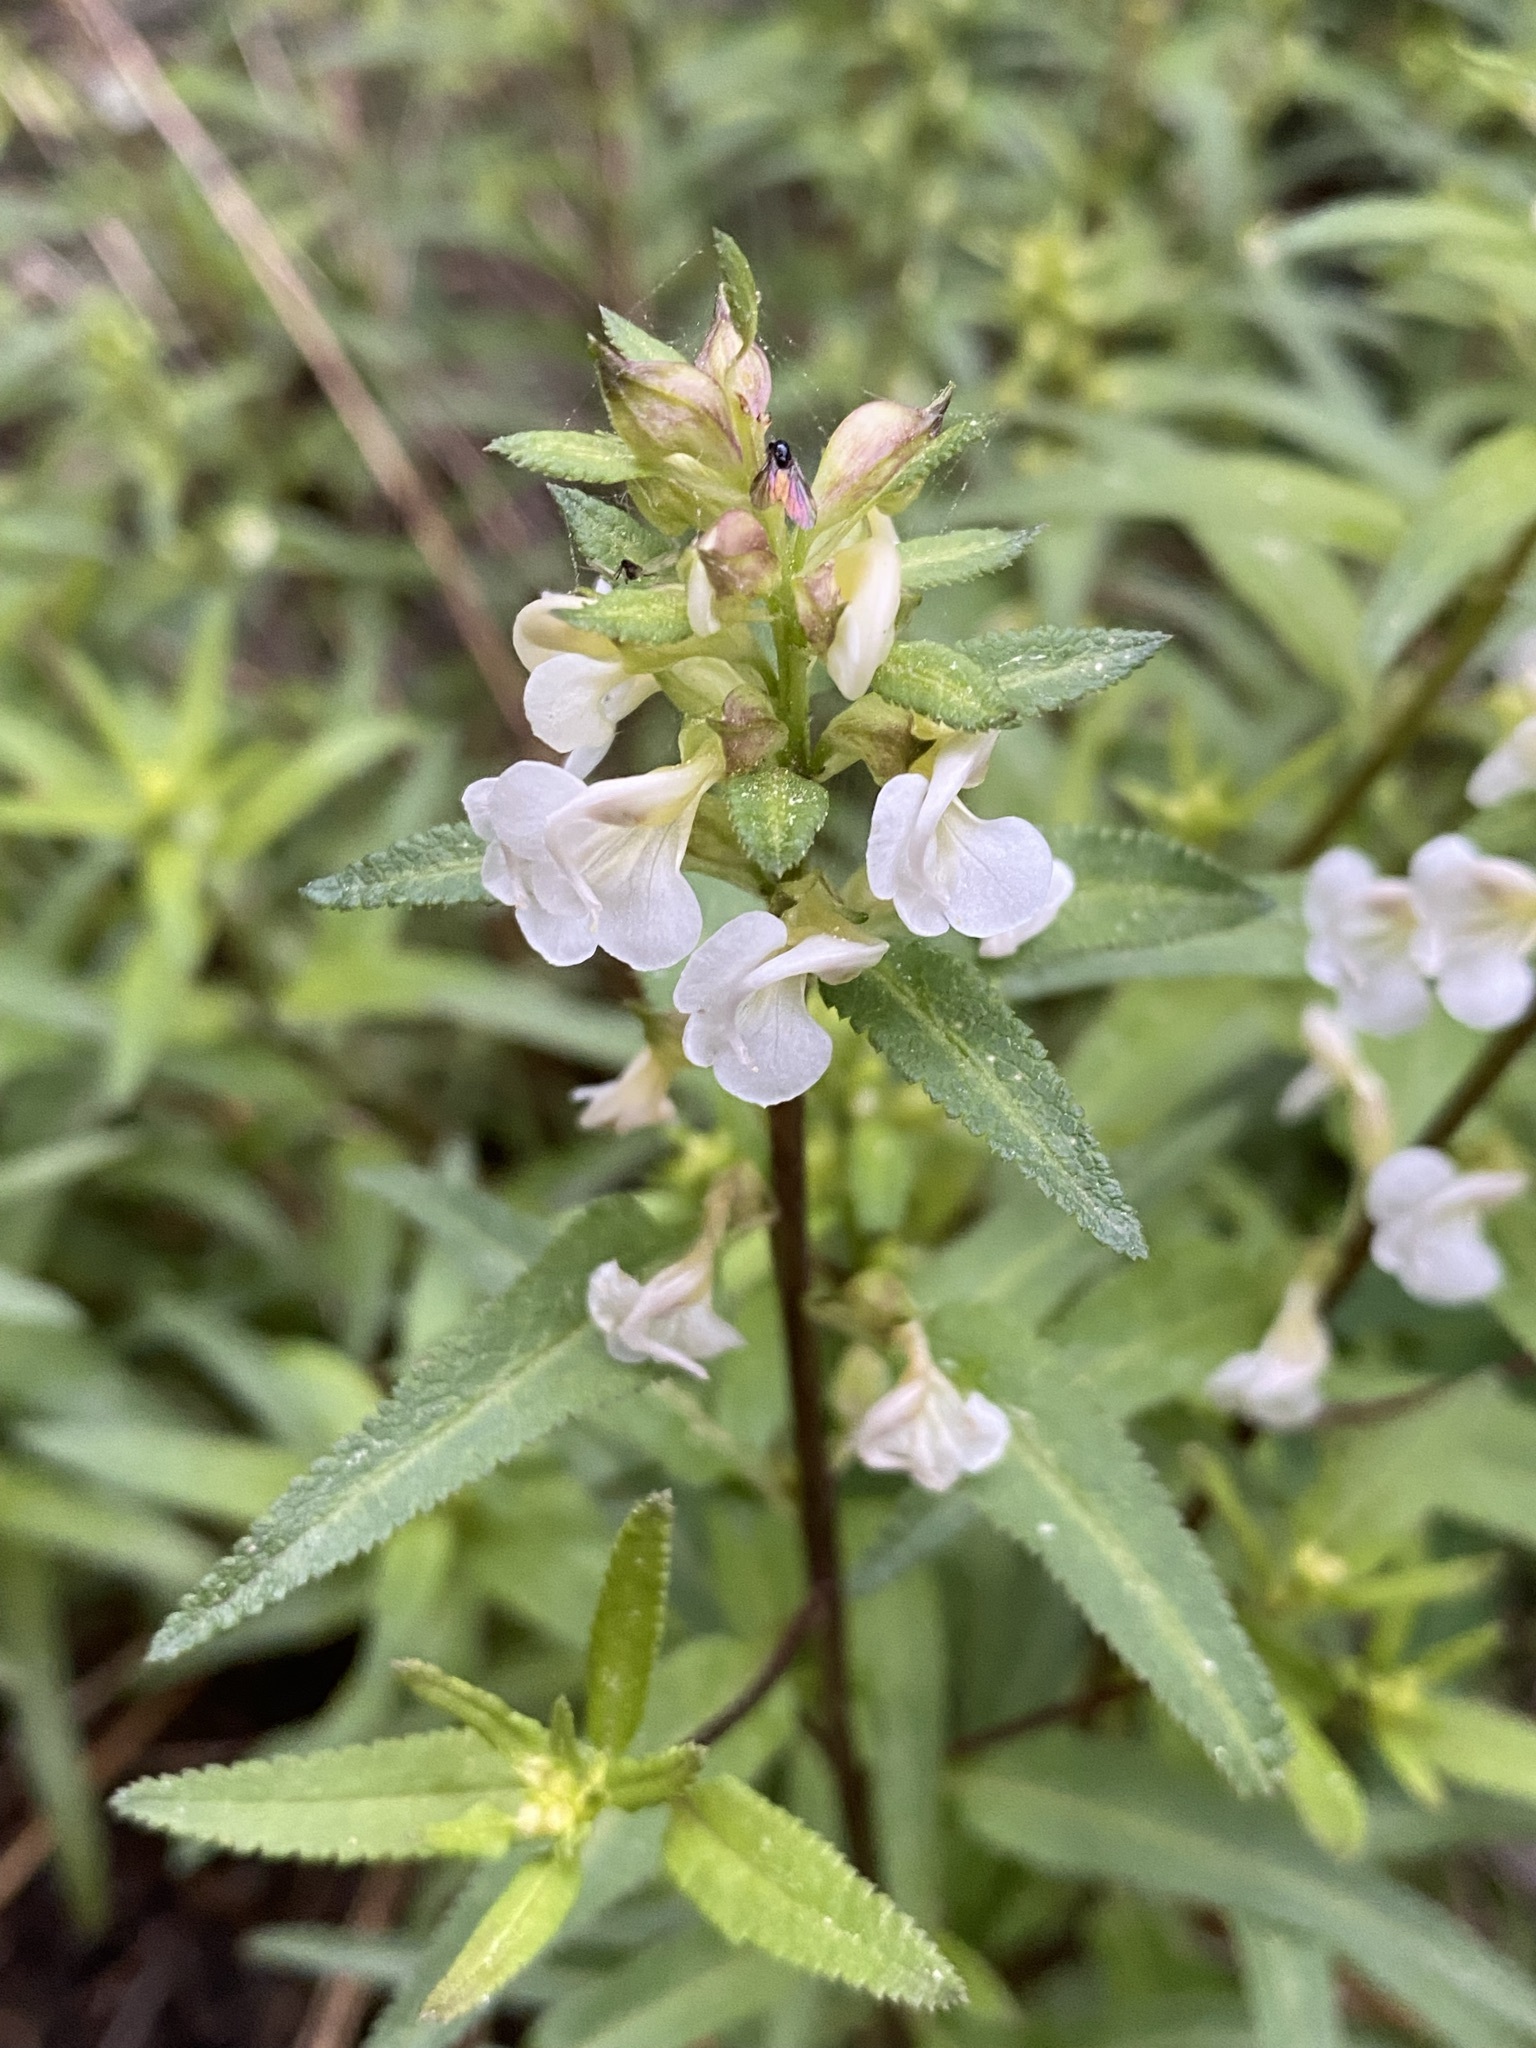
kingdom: Plantae
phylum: Tracheophyta
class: Magnoliopsida
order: Lamiales
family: Orobanchaceae
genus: Pedicularis
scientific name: Pedicularis racemosa
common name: Leafy lousewort
